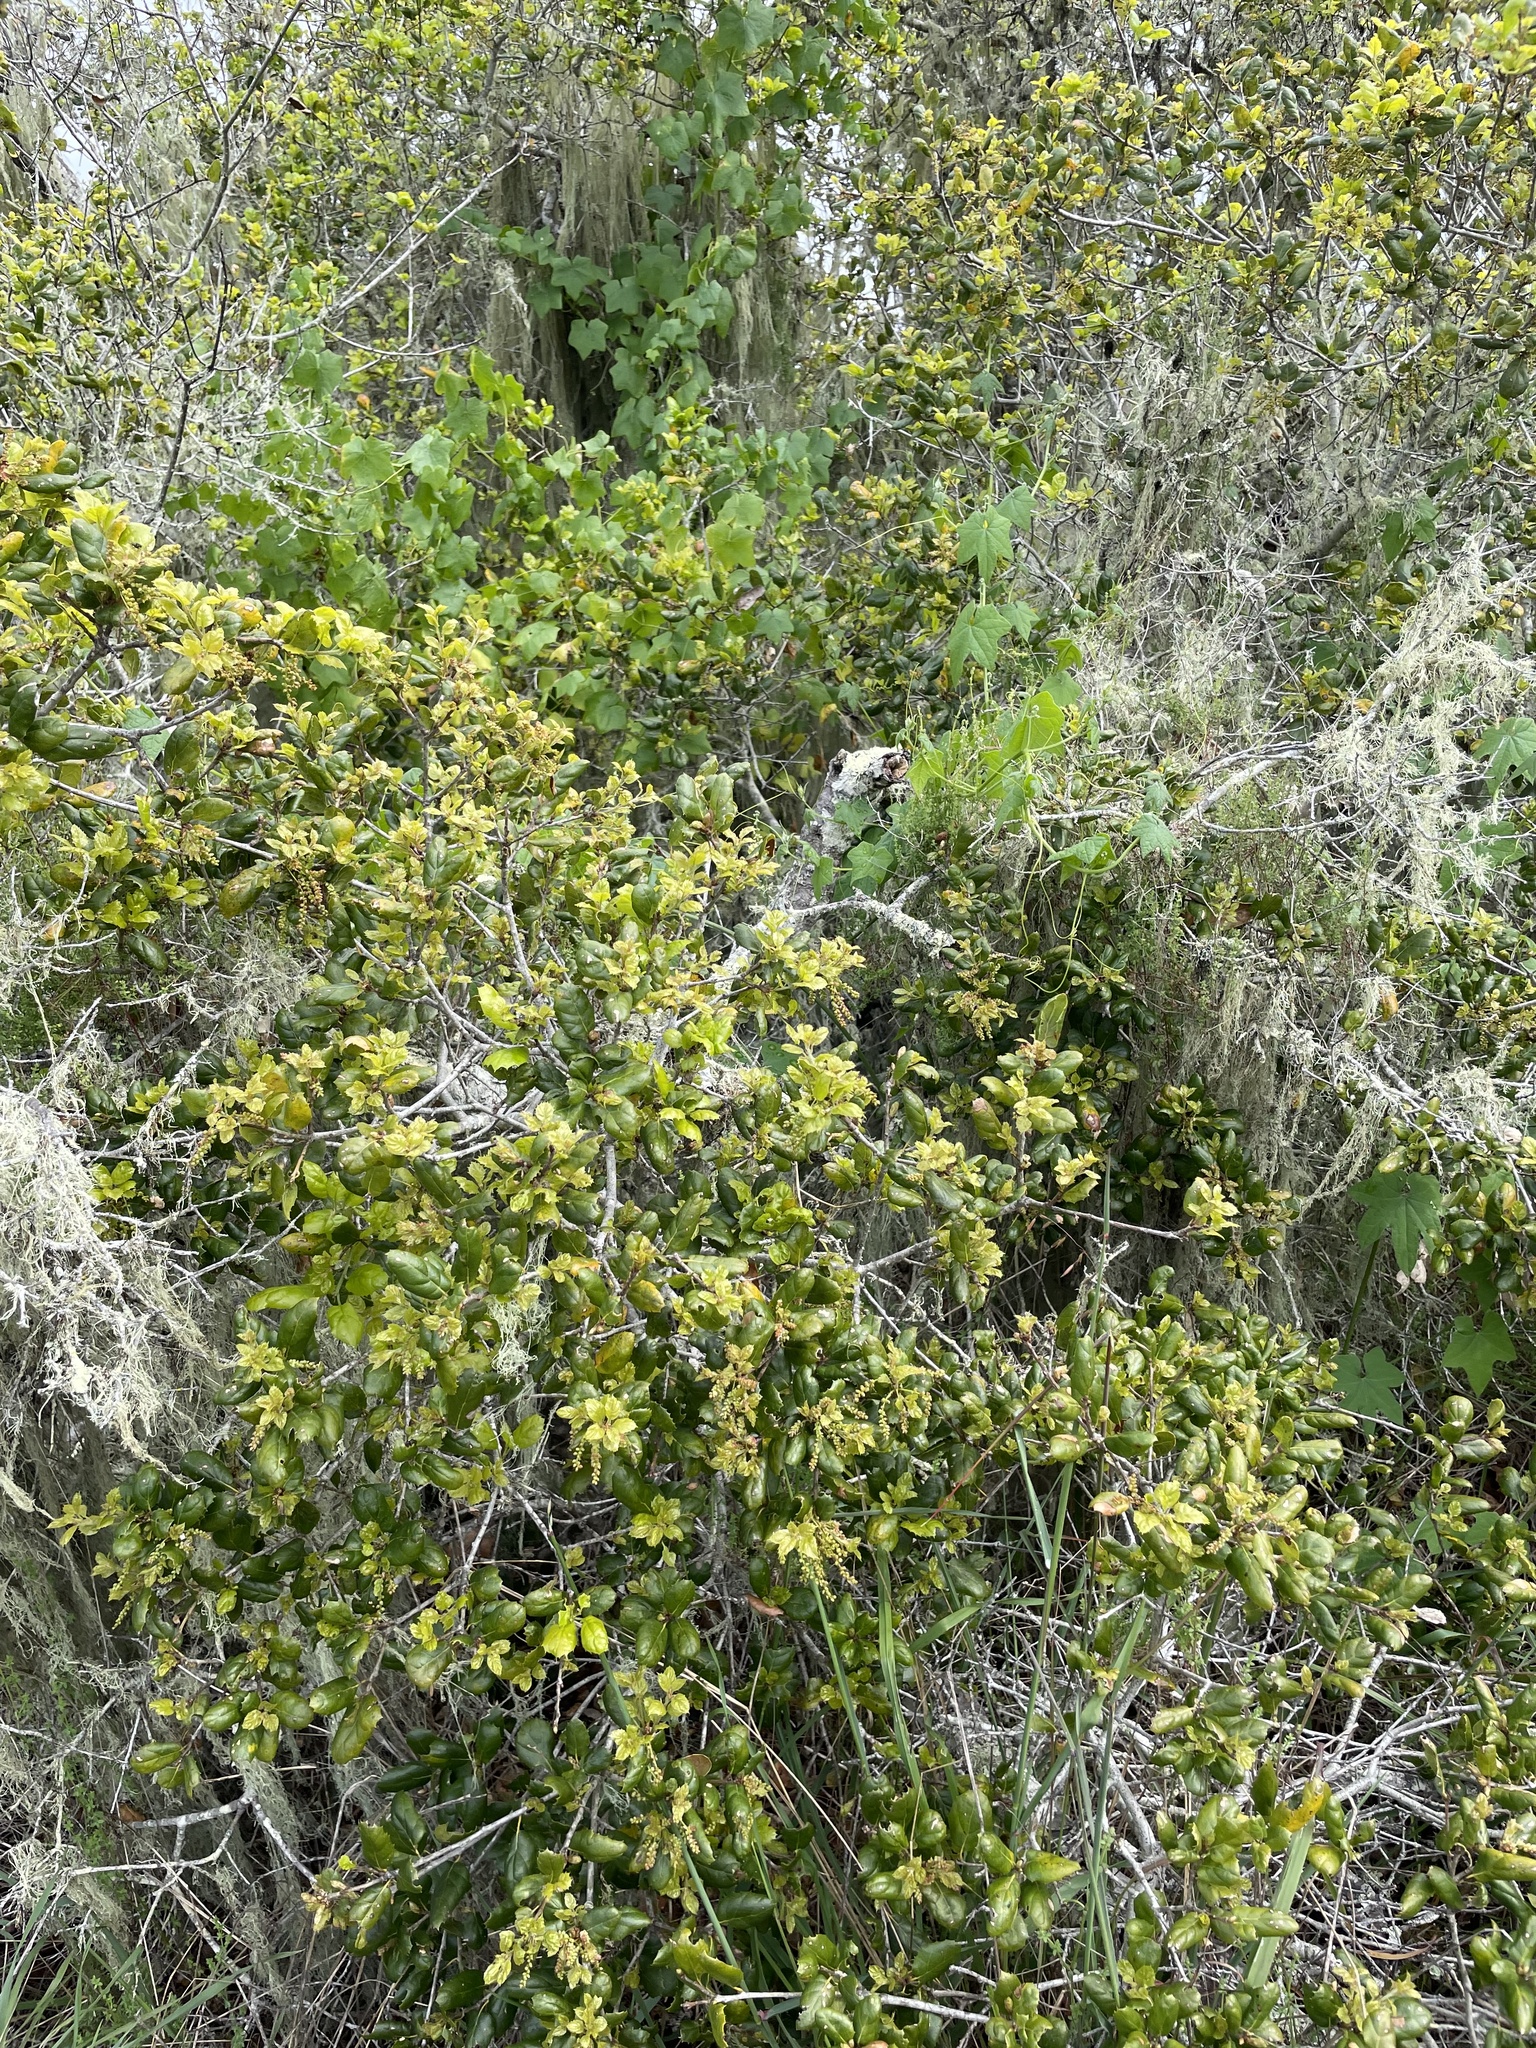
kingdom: Plantae
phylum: Tracheophyta
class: Magnoliopsida
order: Fagales
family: Fagaceae
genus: Quercus
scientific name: Quercus agrifolia
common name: California live oak
